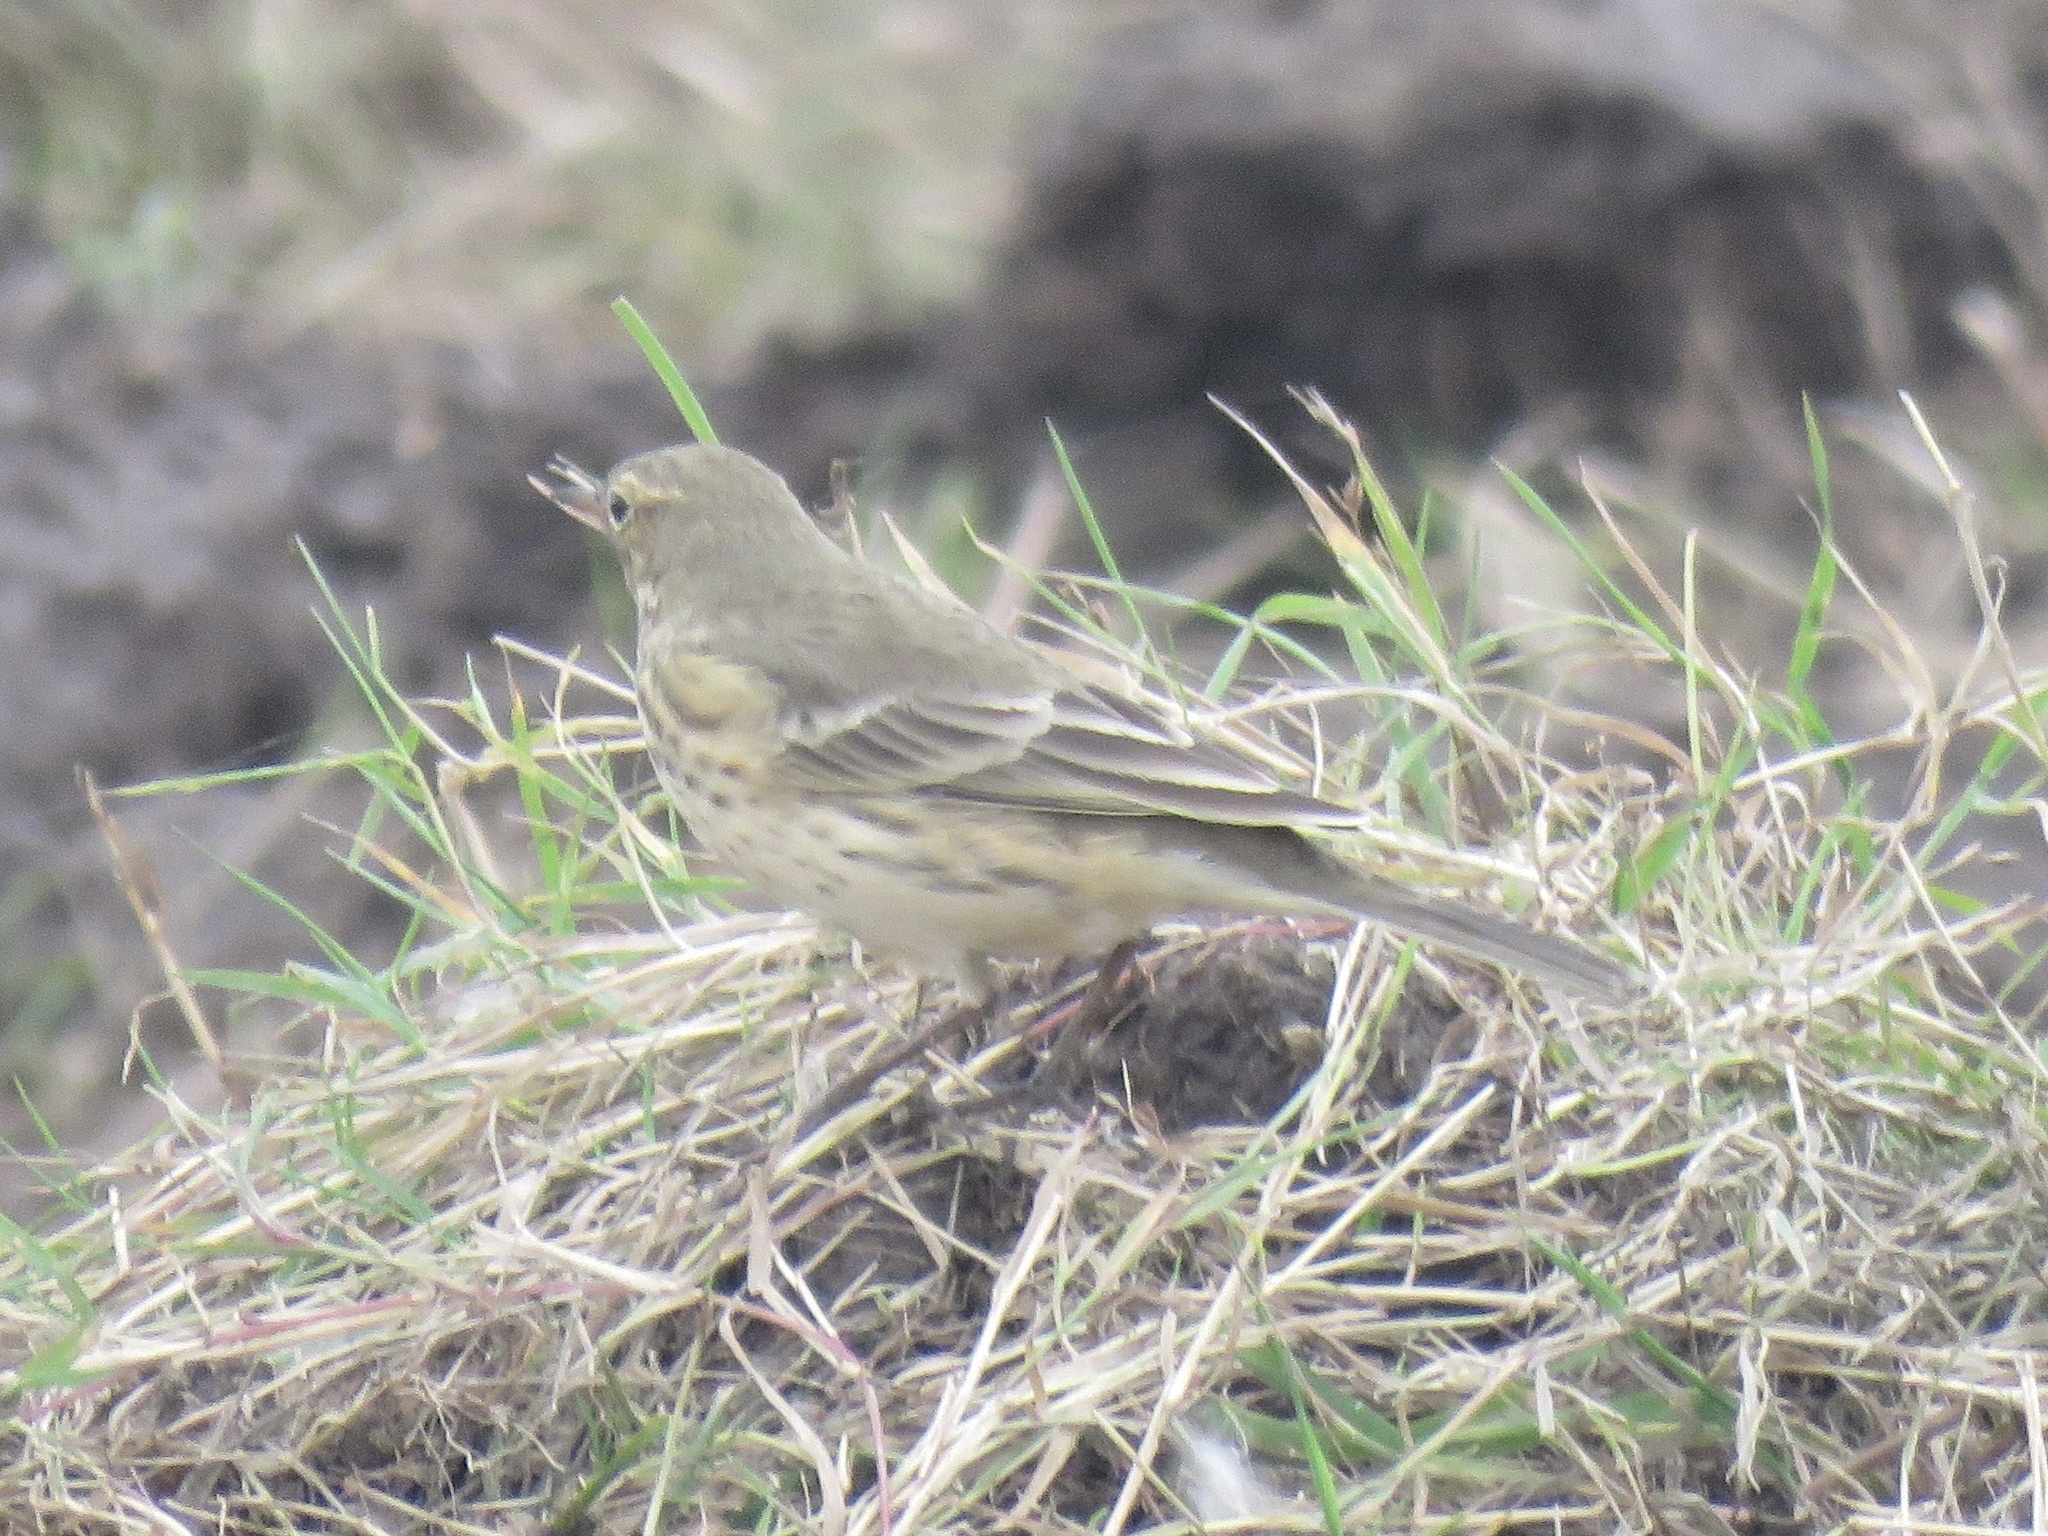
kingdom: Animalia
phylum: Chordata
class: Aves
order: Passeriformes
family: Motacillidae
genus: Anthus
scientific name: Anthus rubescens
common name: Buff-bellied pipit
